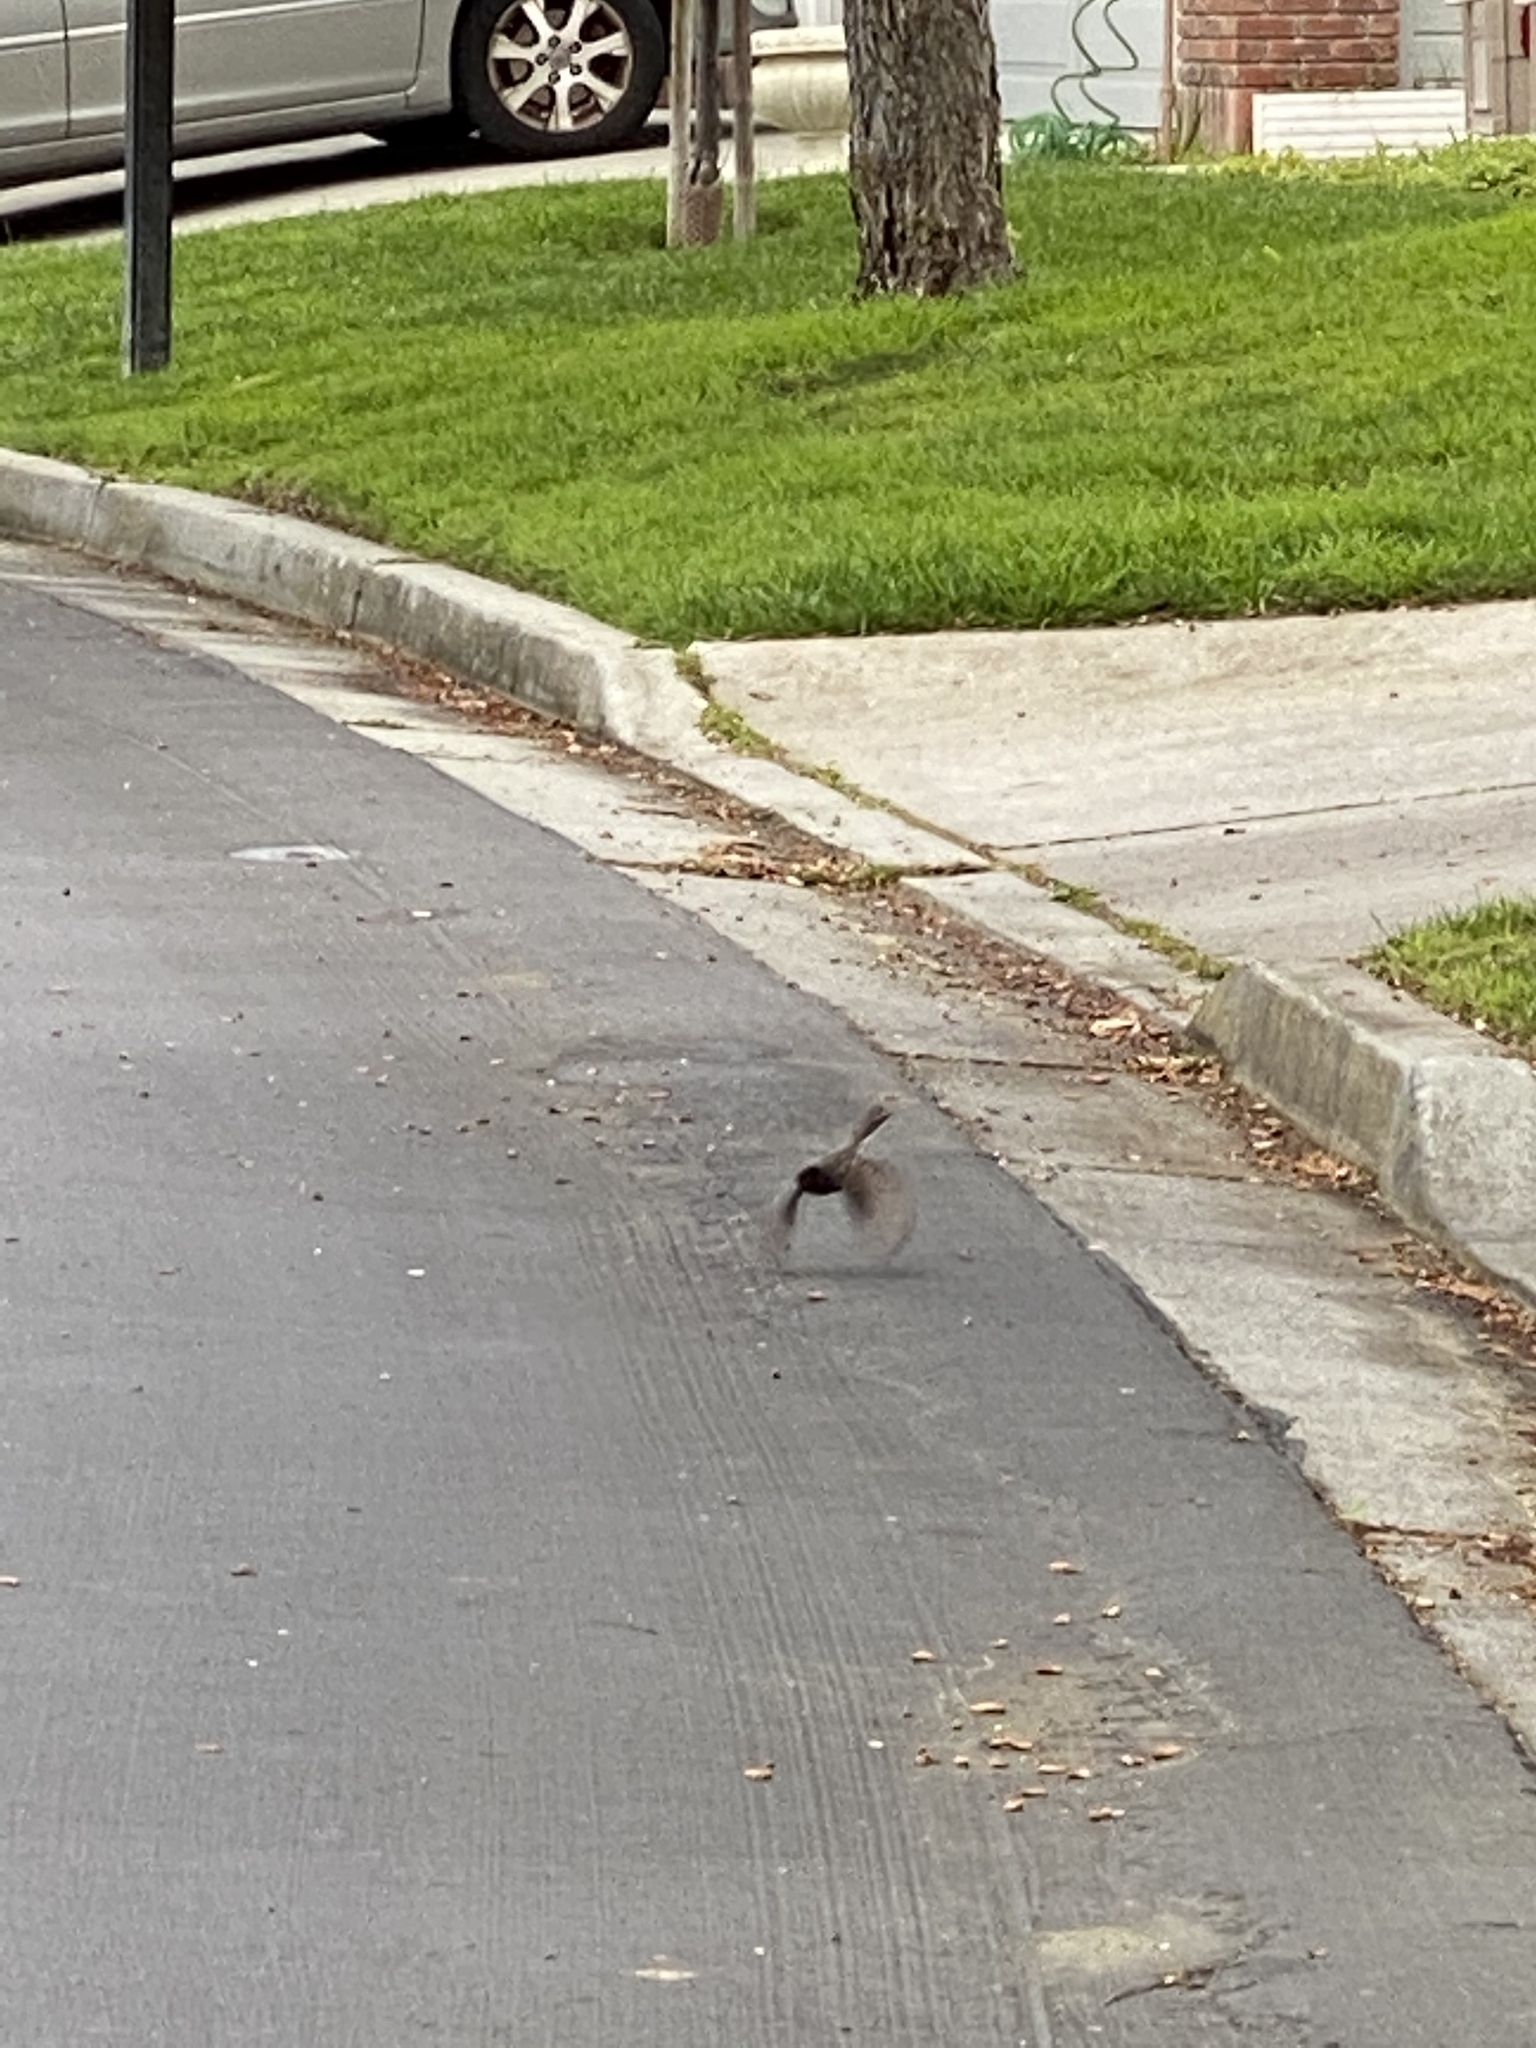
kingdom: Animalia
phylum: Chordata
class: Aves
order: Passeriformes
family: Tyrannidae
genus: Sayornis
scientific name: Sayornis nigricans
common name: Black phoebe
